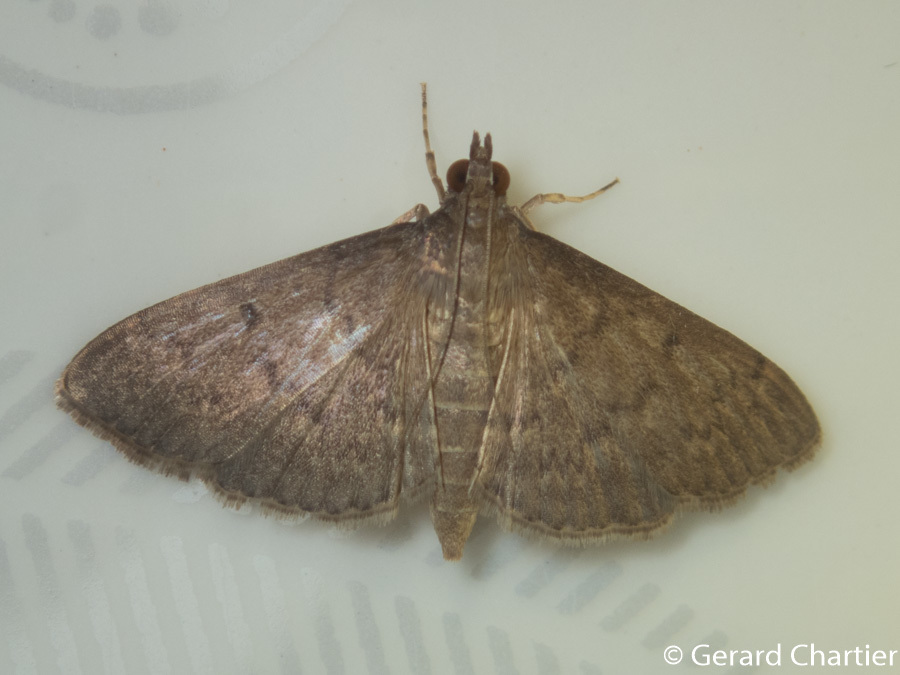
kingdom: Animalia
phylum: Arthropoda
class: Insecta
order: Lepidoptera
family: Crambidae
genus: Herpetogramma
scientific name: Herpetogramma licarsisalis
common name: Grass webworm
